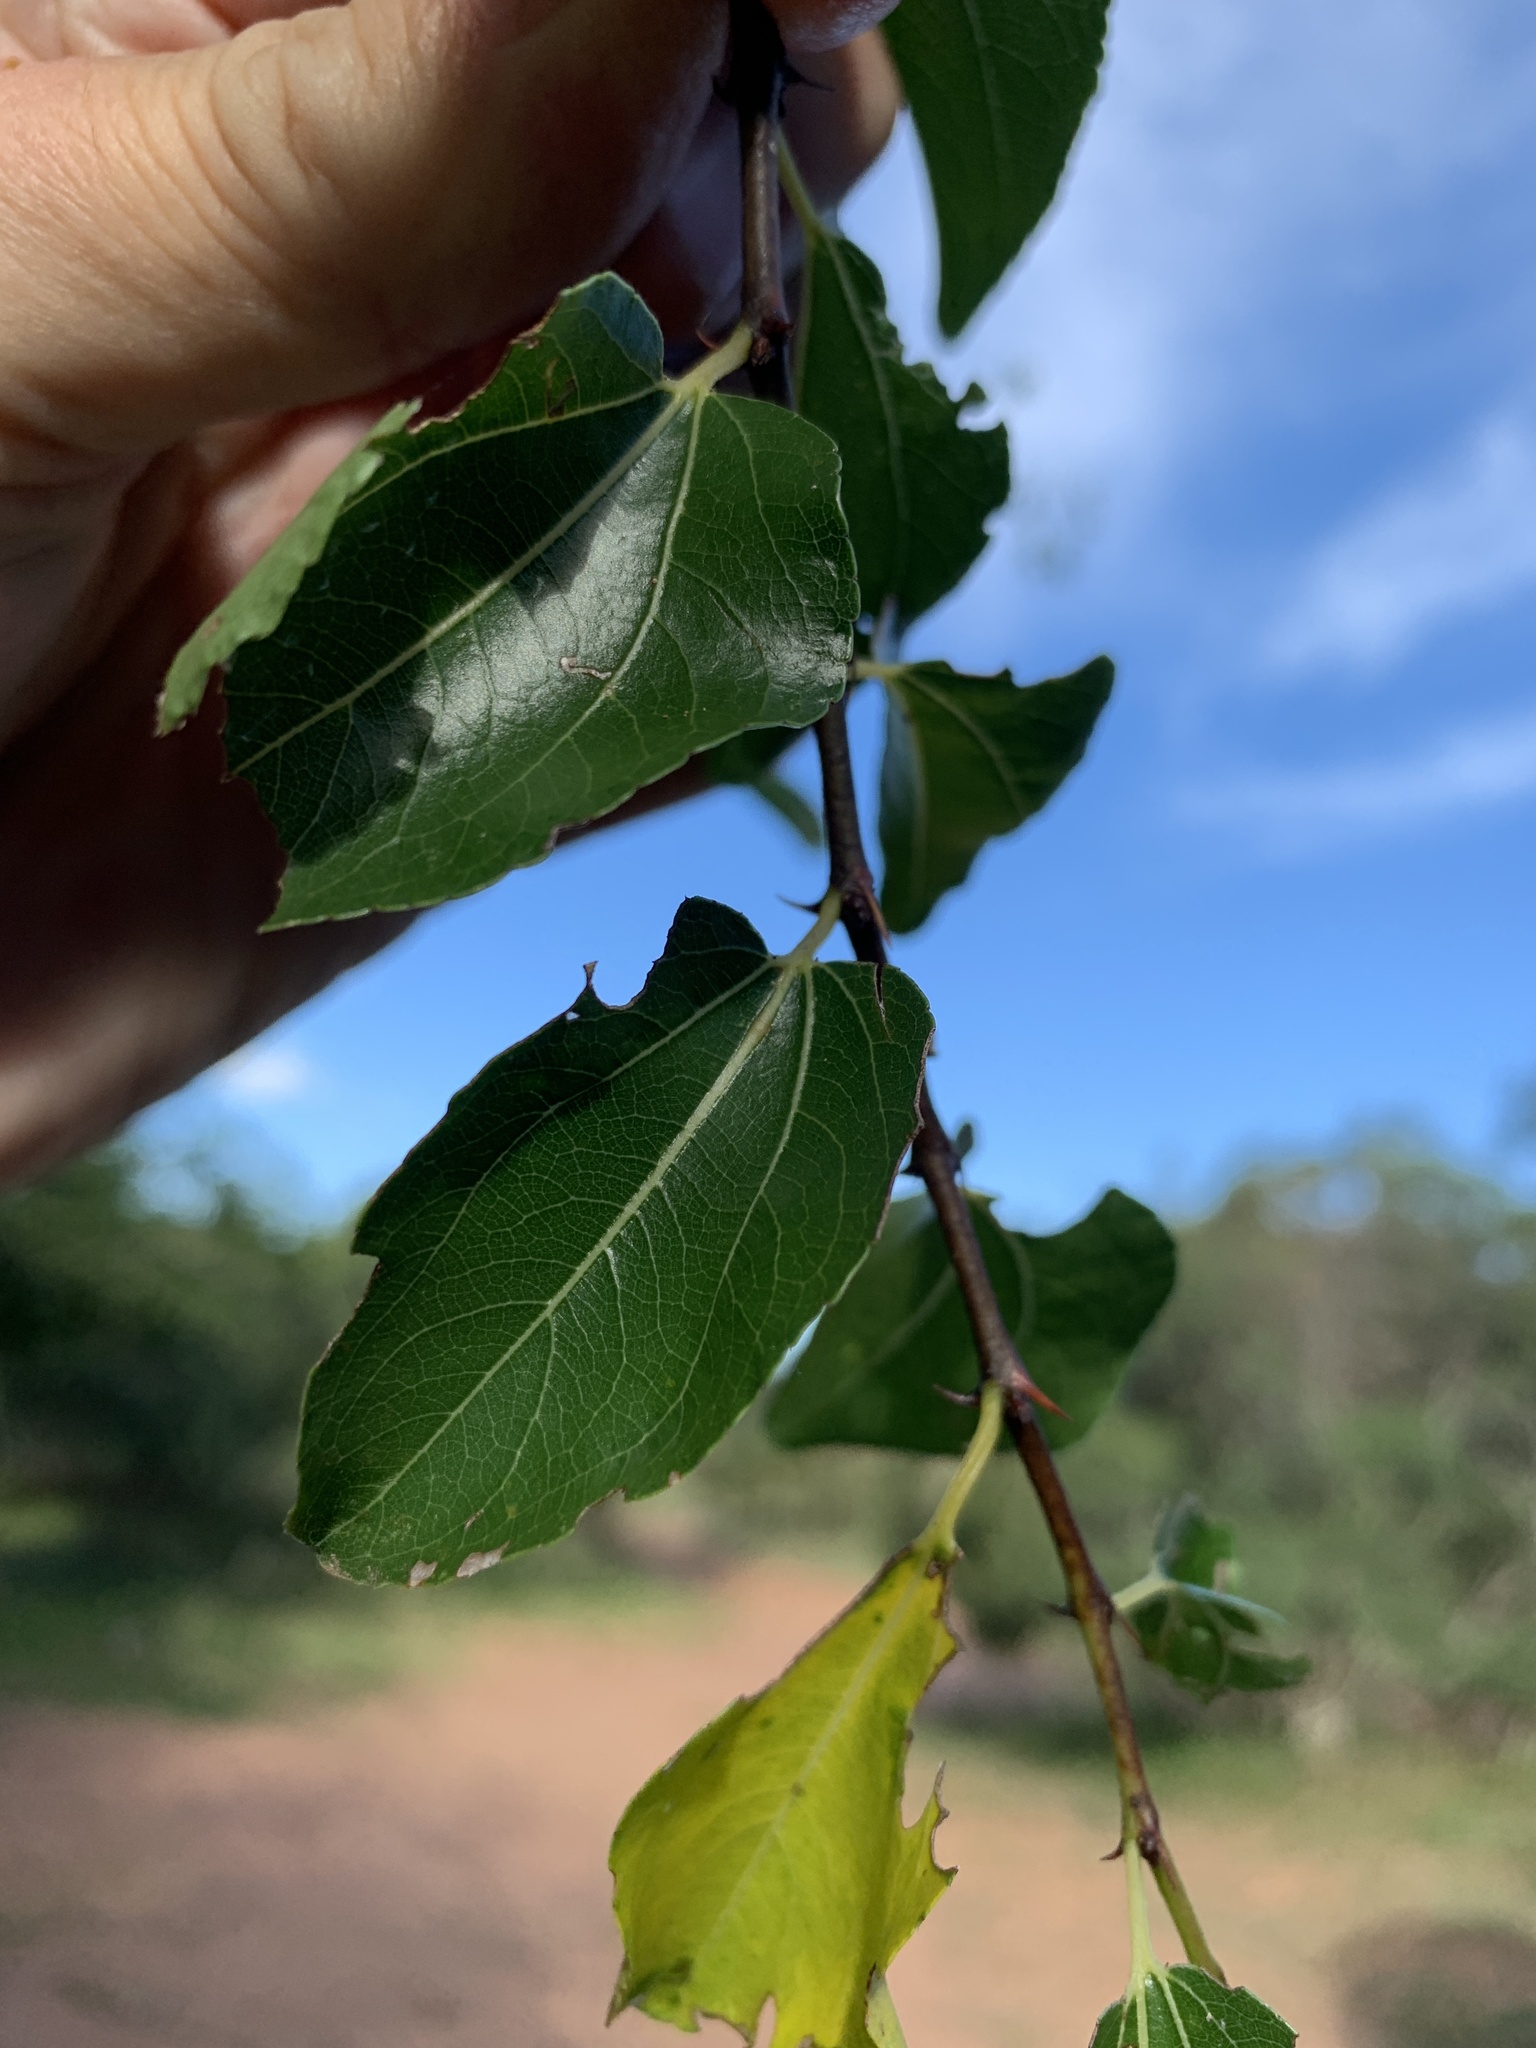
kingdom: Plantae
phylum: Tracheophyta
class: Magnoliopsida
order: Rosales
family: Rhamnaceae
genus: Ziziphus
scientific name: Ziziphus mucronata
